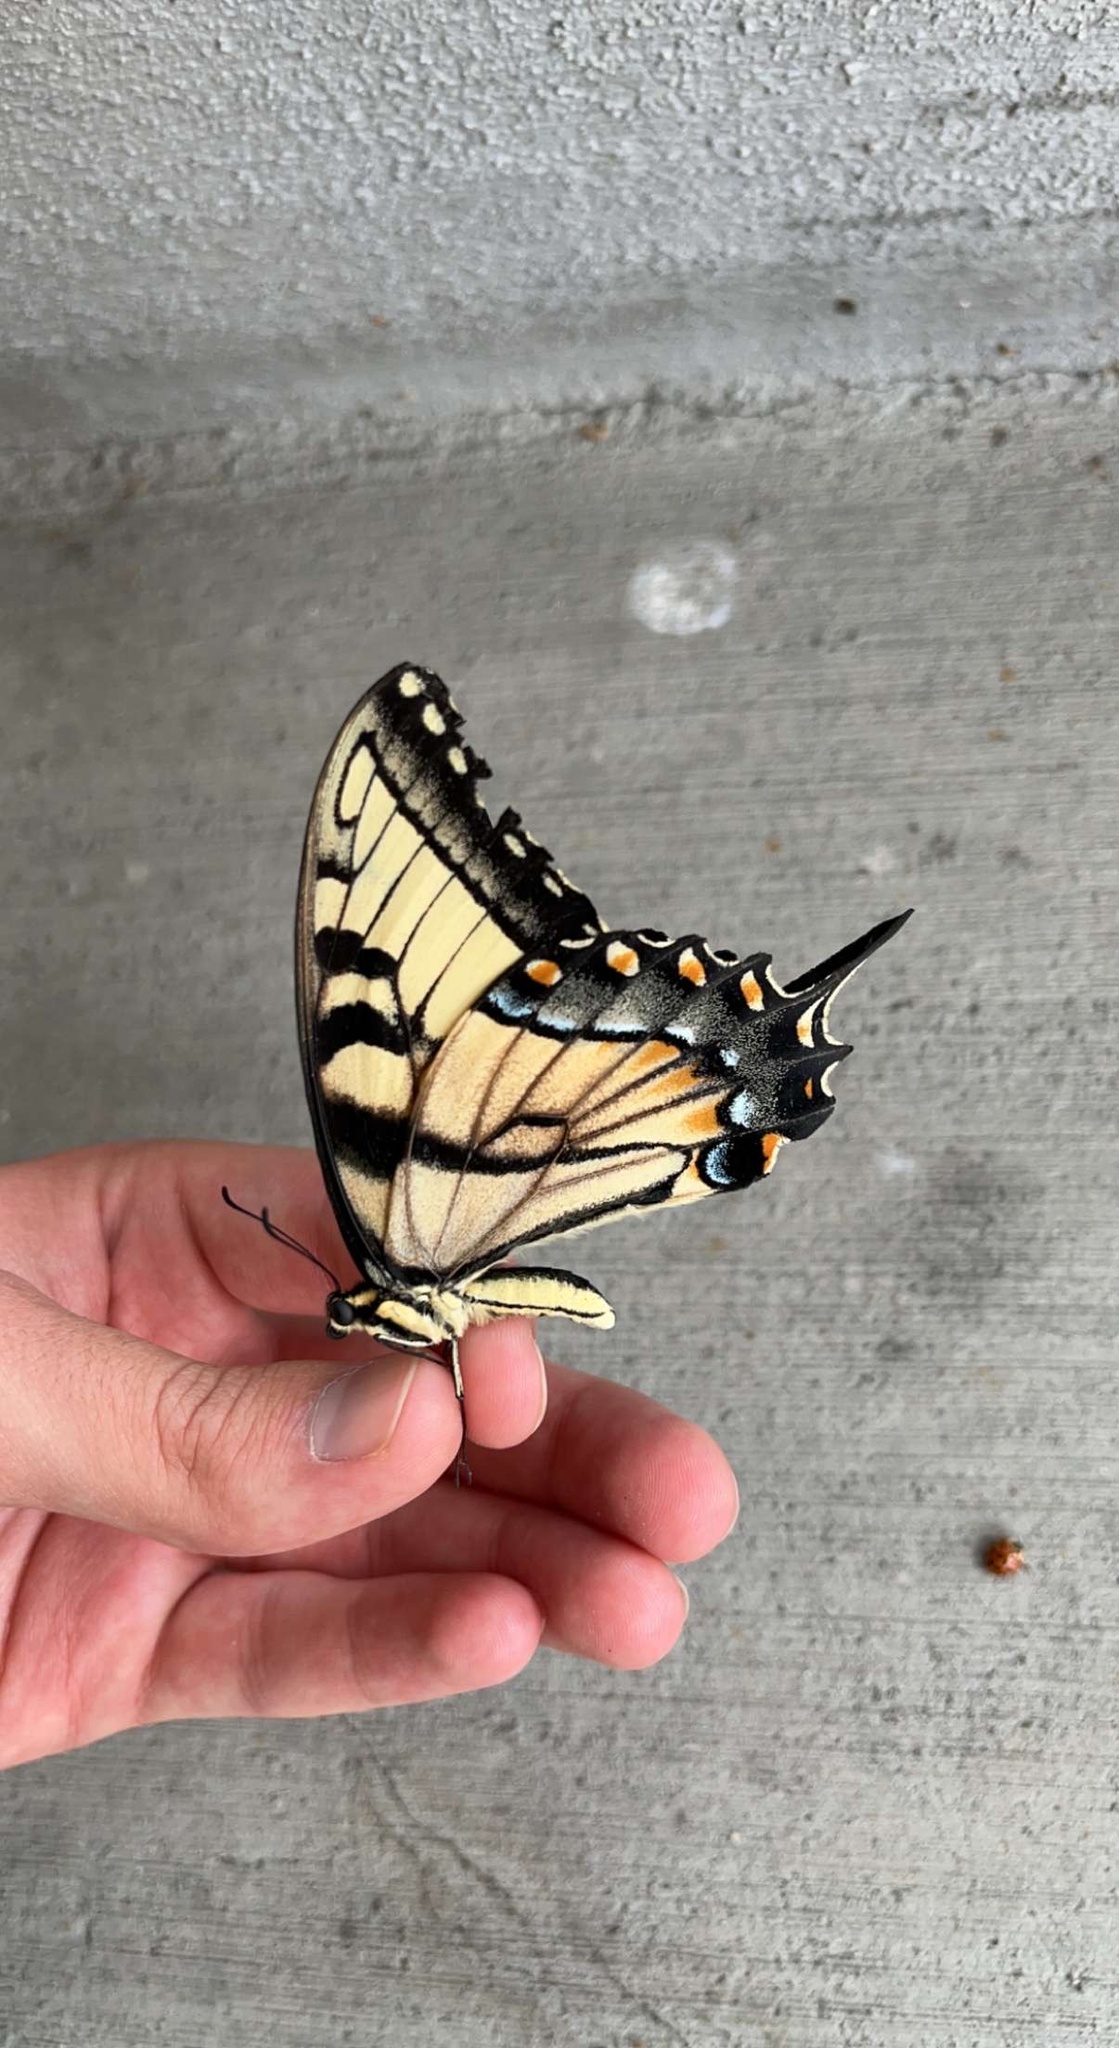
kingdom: Animalia
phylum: Arthropoda
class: Insecta
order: Lepidoptera
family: Papilionidae
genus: Papilio
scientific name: Papilio glaucus
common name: Tiger swallowtail
